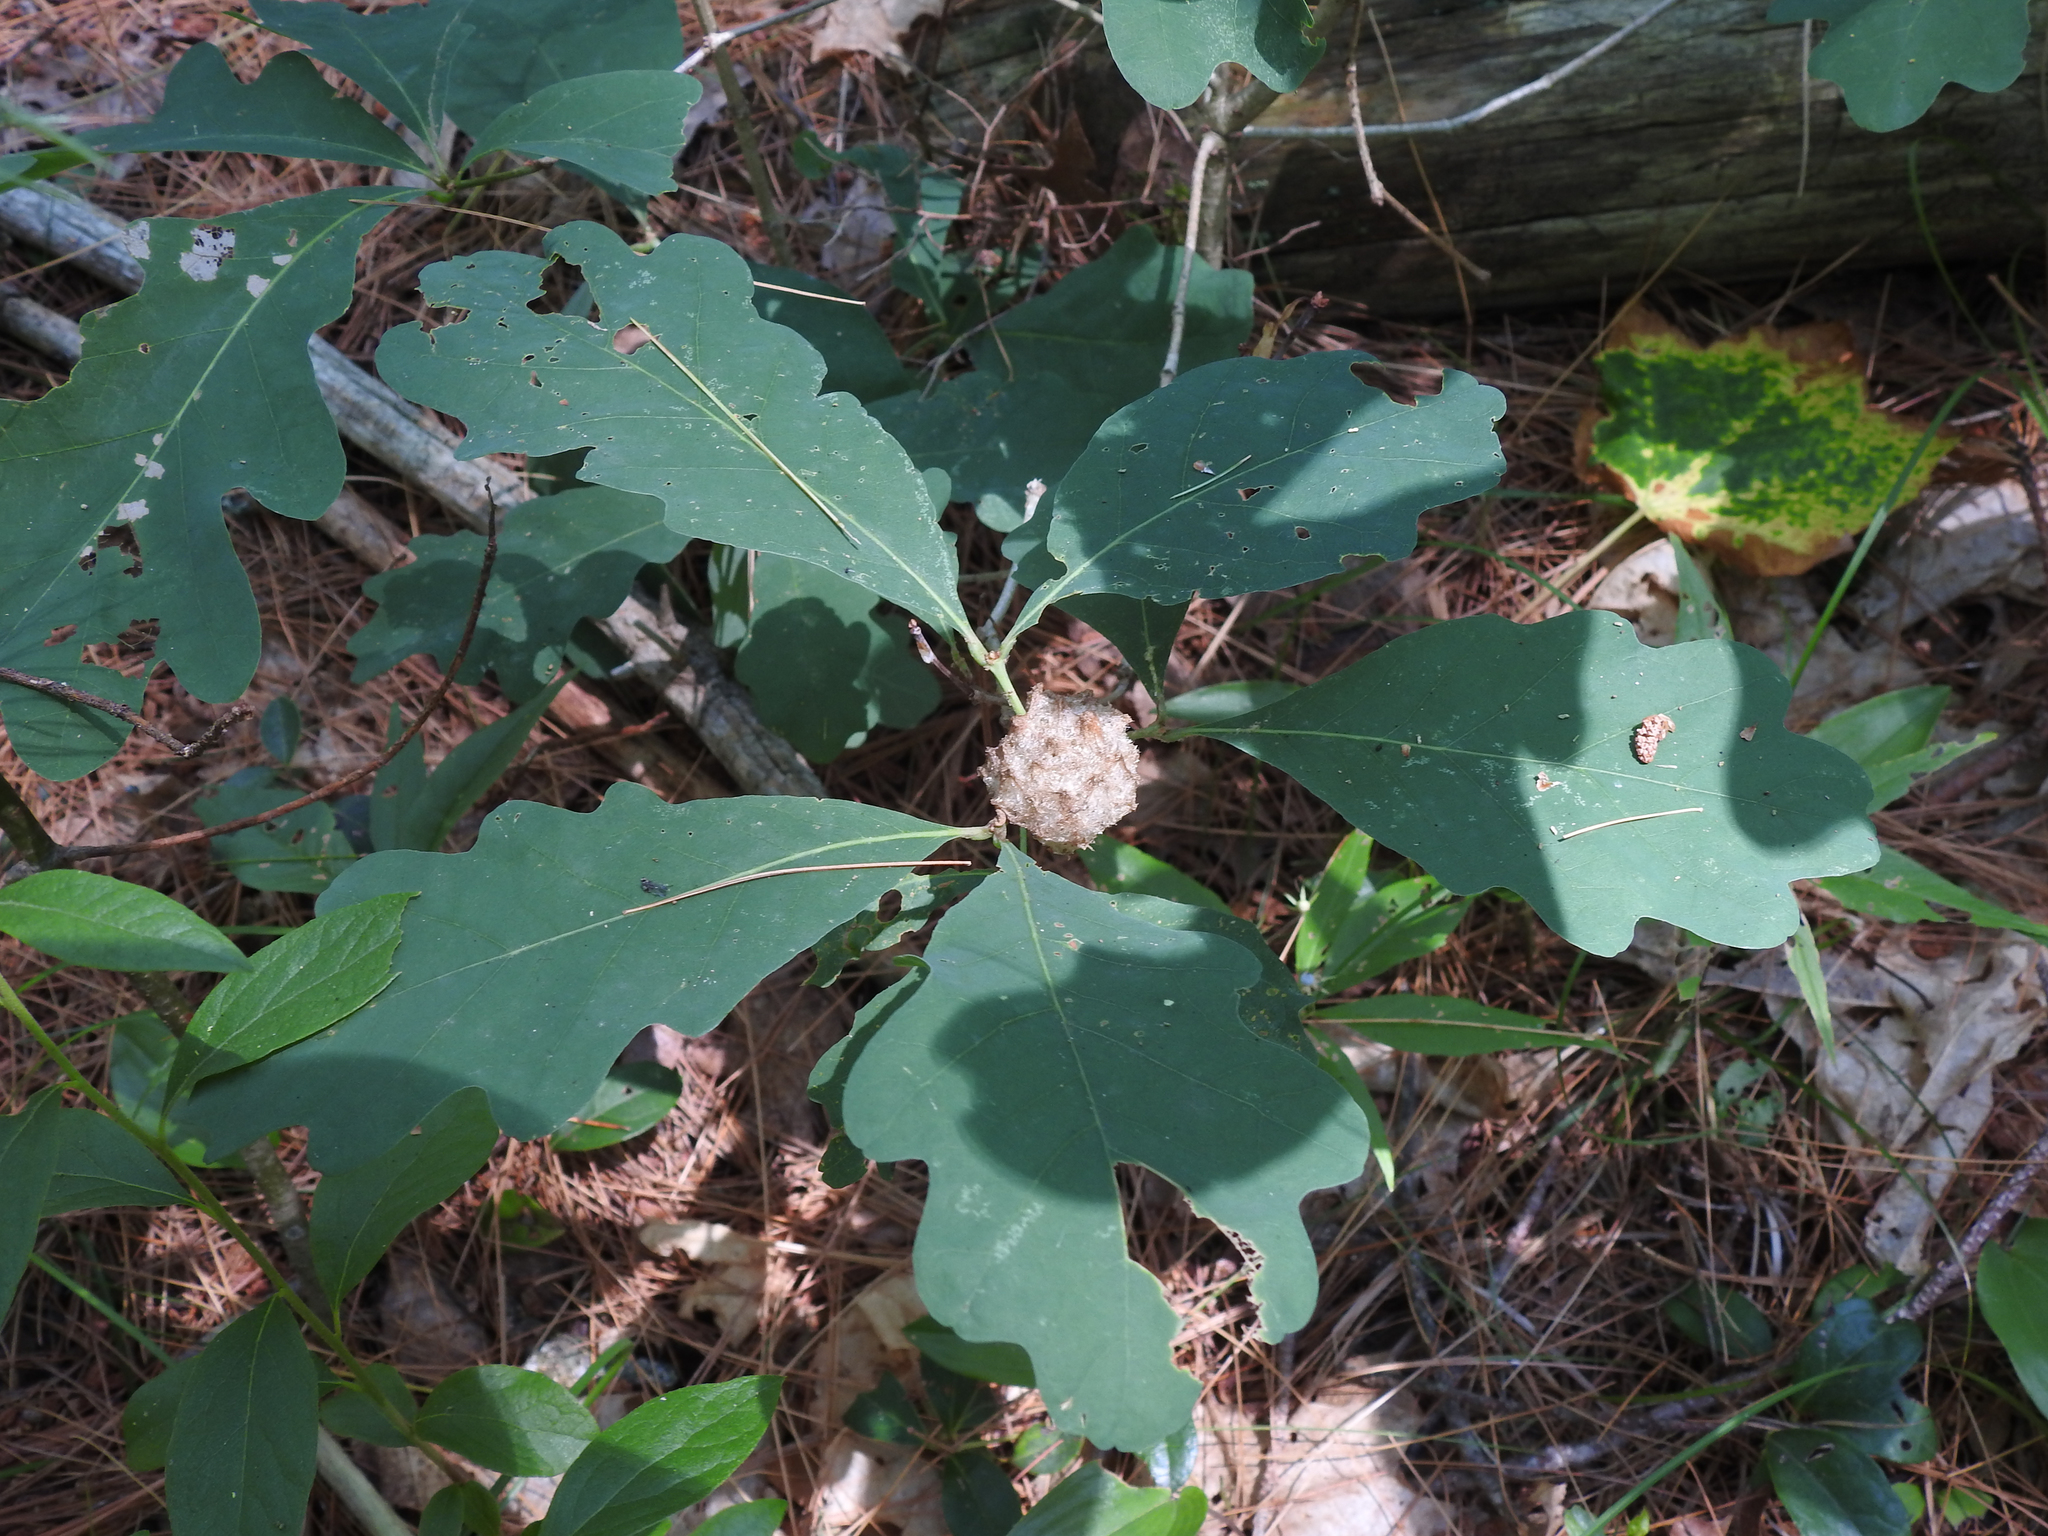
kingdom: Animalia
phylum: Arthropoda
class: Insecta
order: Hymenoptera
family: Cynipidae
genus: Callirhytis
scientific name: Callirhytis
